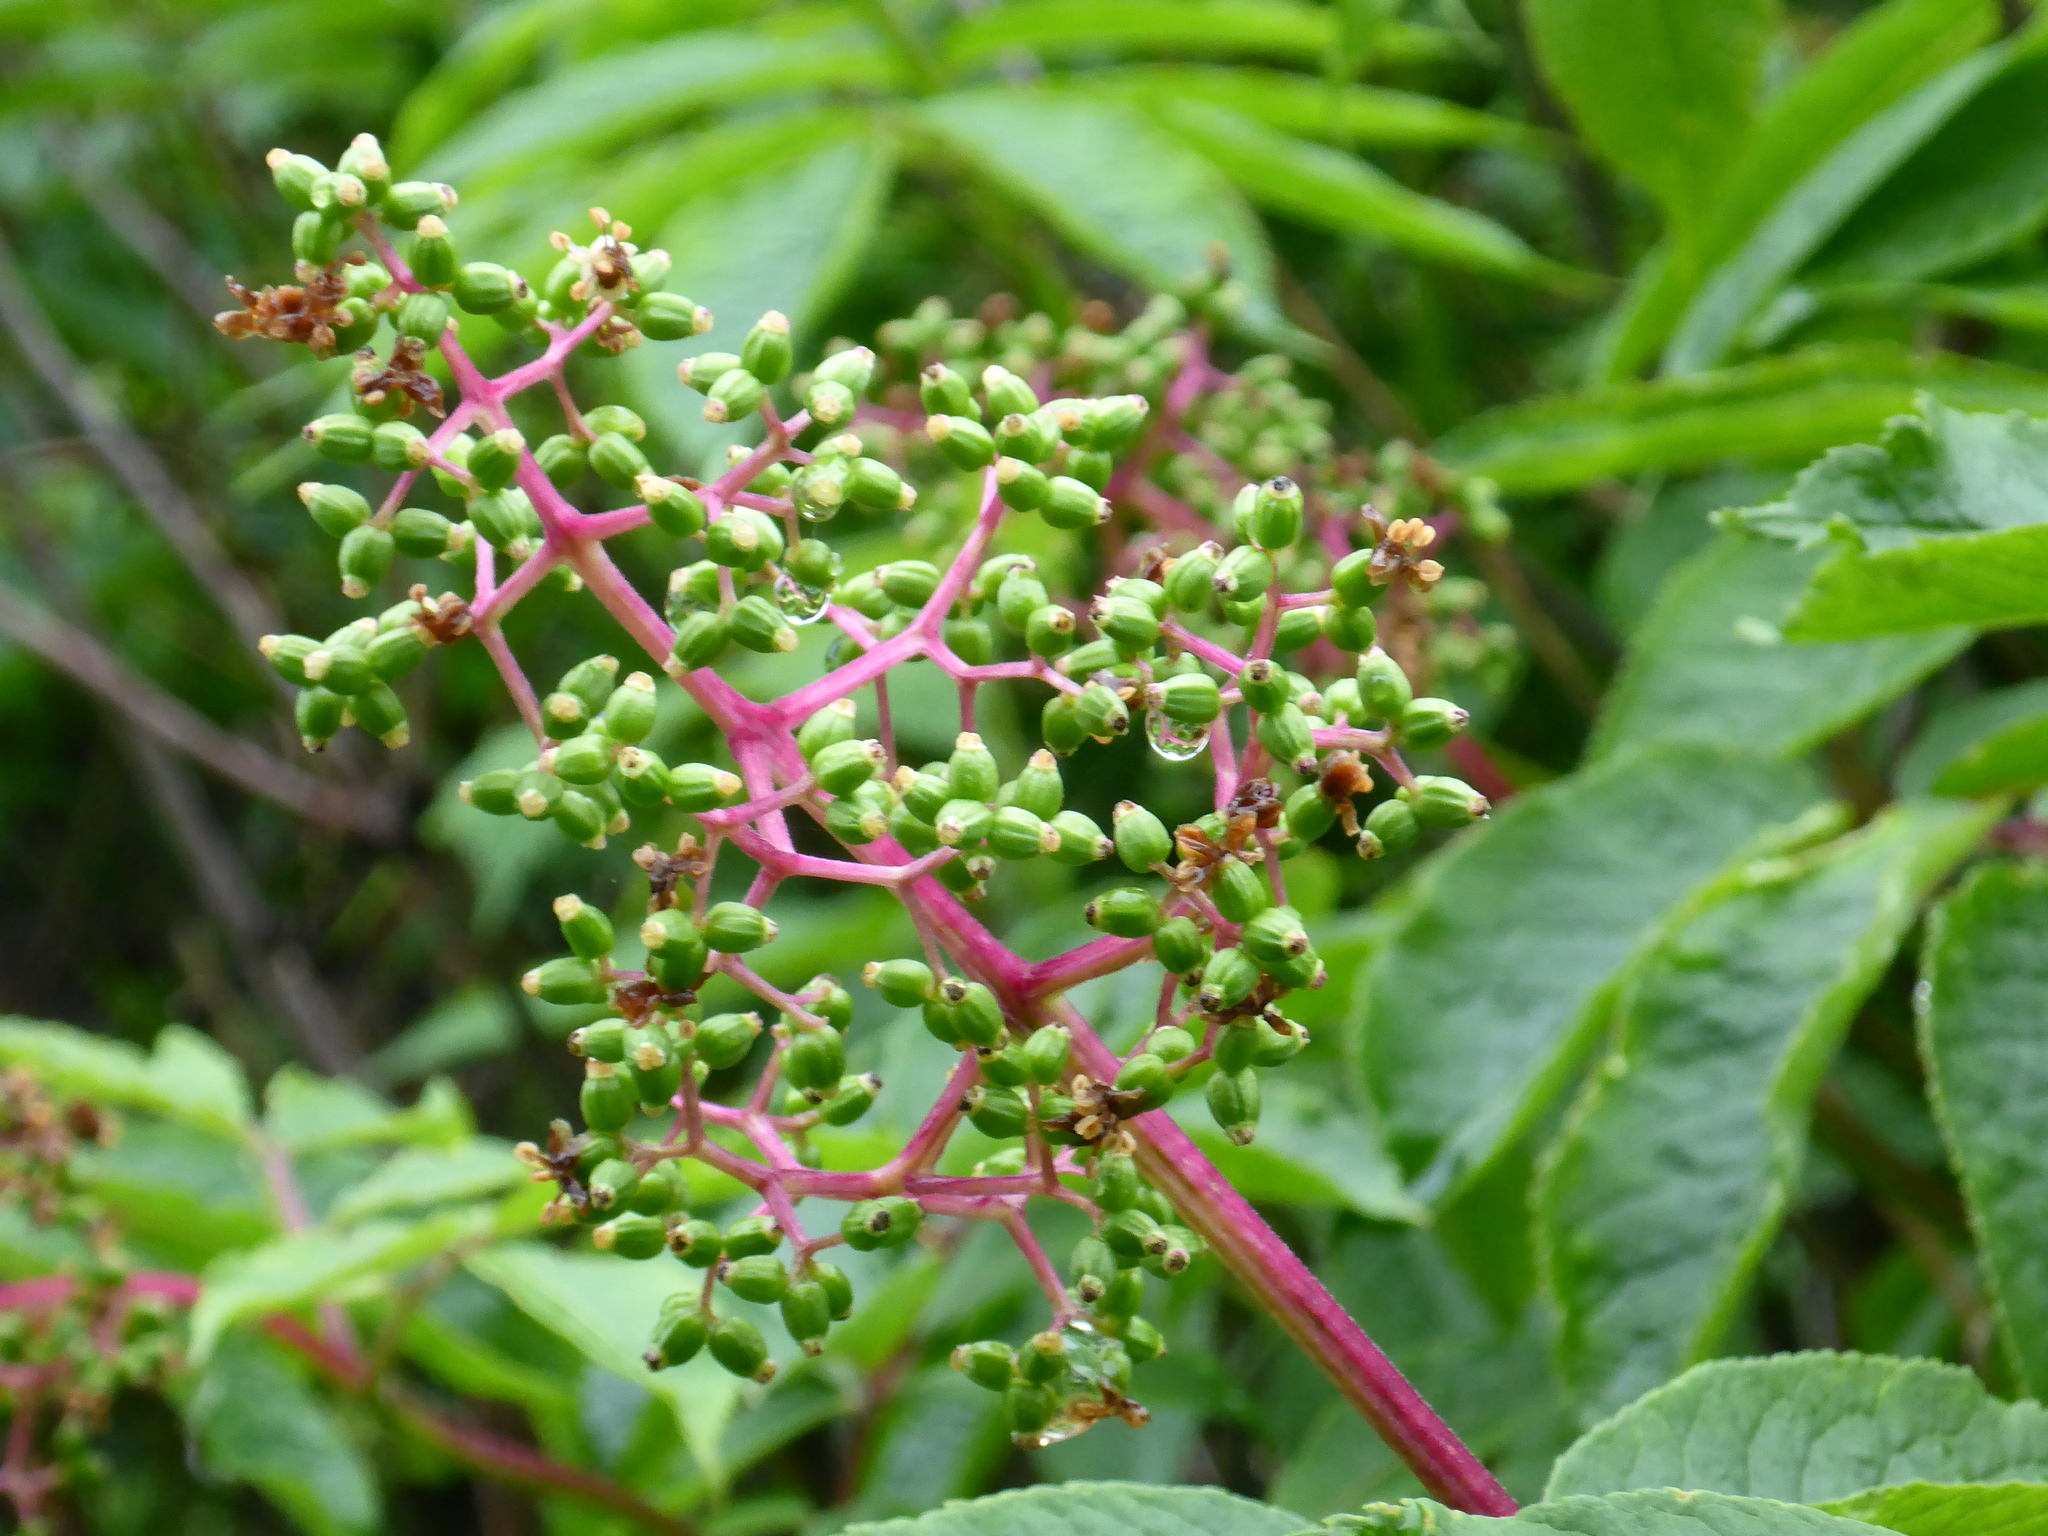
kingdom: Plantae
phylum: Tracheophyta
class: Magnoliopsida
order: Dipsacales
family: Viburnaceae
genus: Sambucus
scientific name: Sambucus racemosa
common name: Red-berried elder
